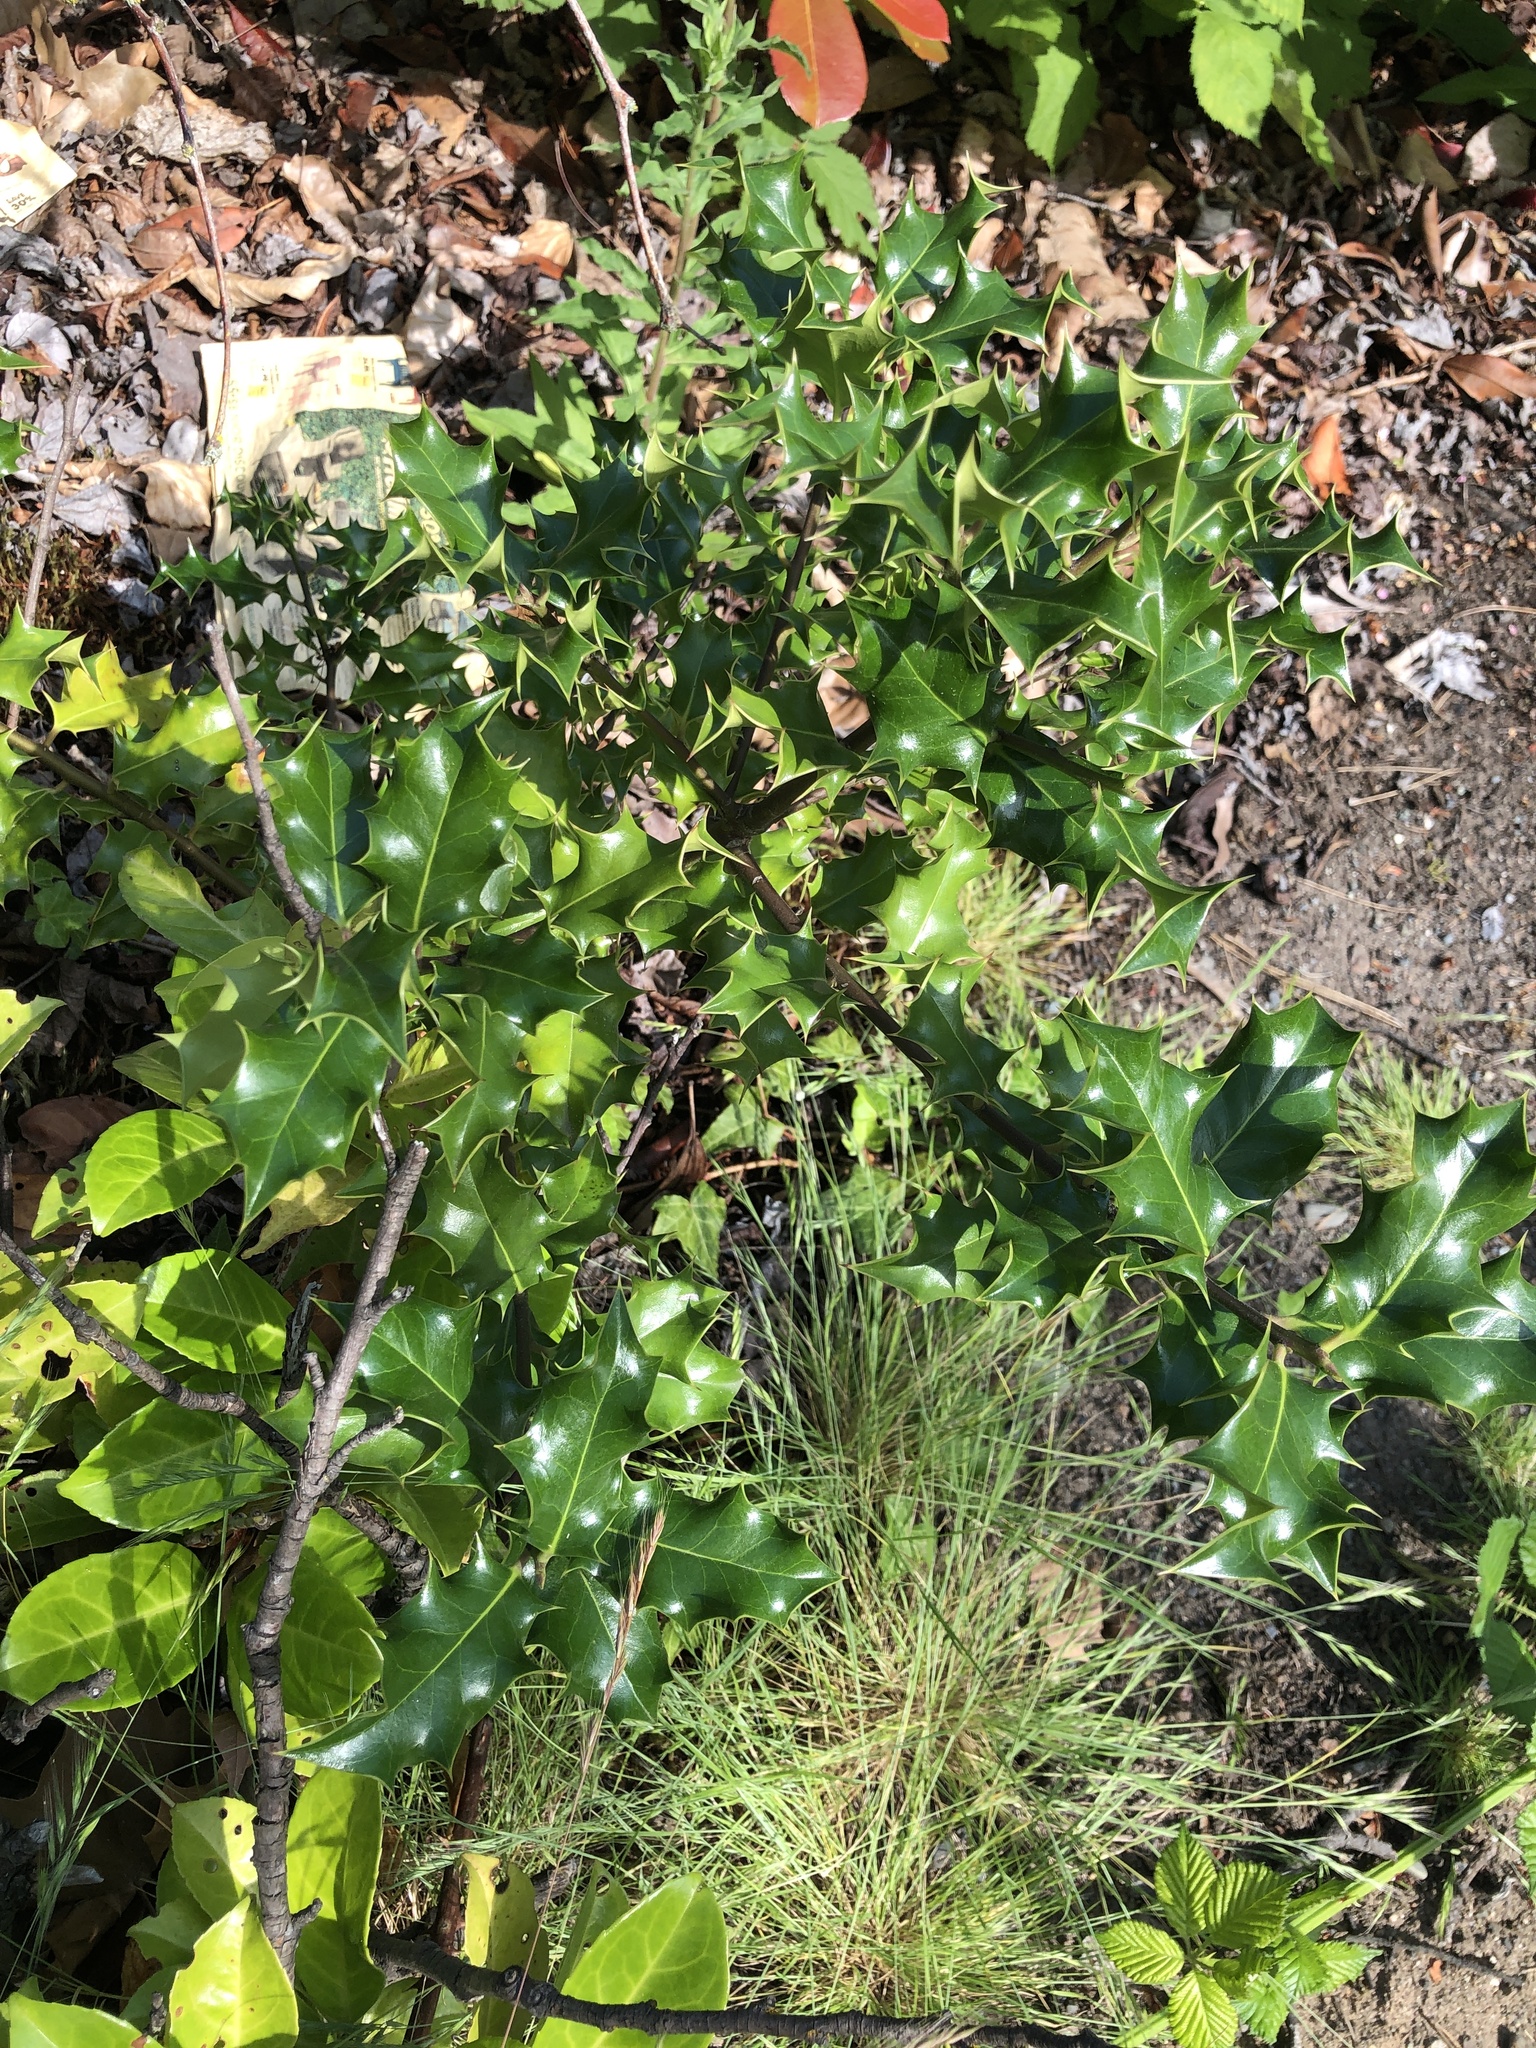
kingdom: Plantae
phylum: Tracheophyta
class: Magnoliopsida
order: Aquifoliales
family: Aquifoliaceae
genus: Ilex
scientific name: Ilex aquifolium
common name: English holly
